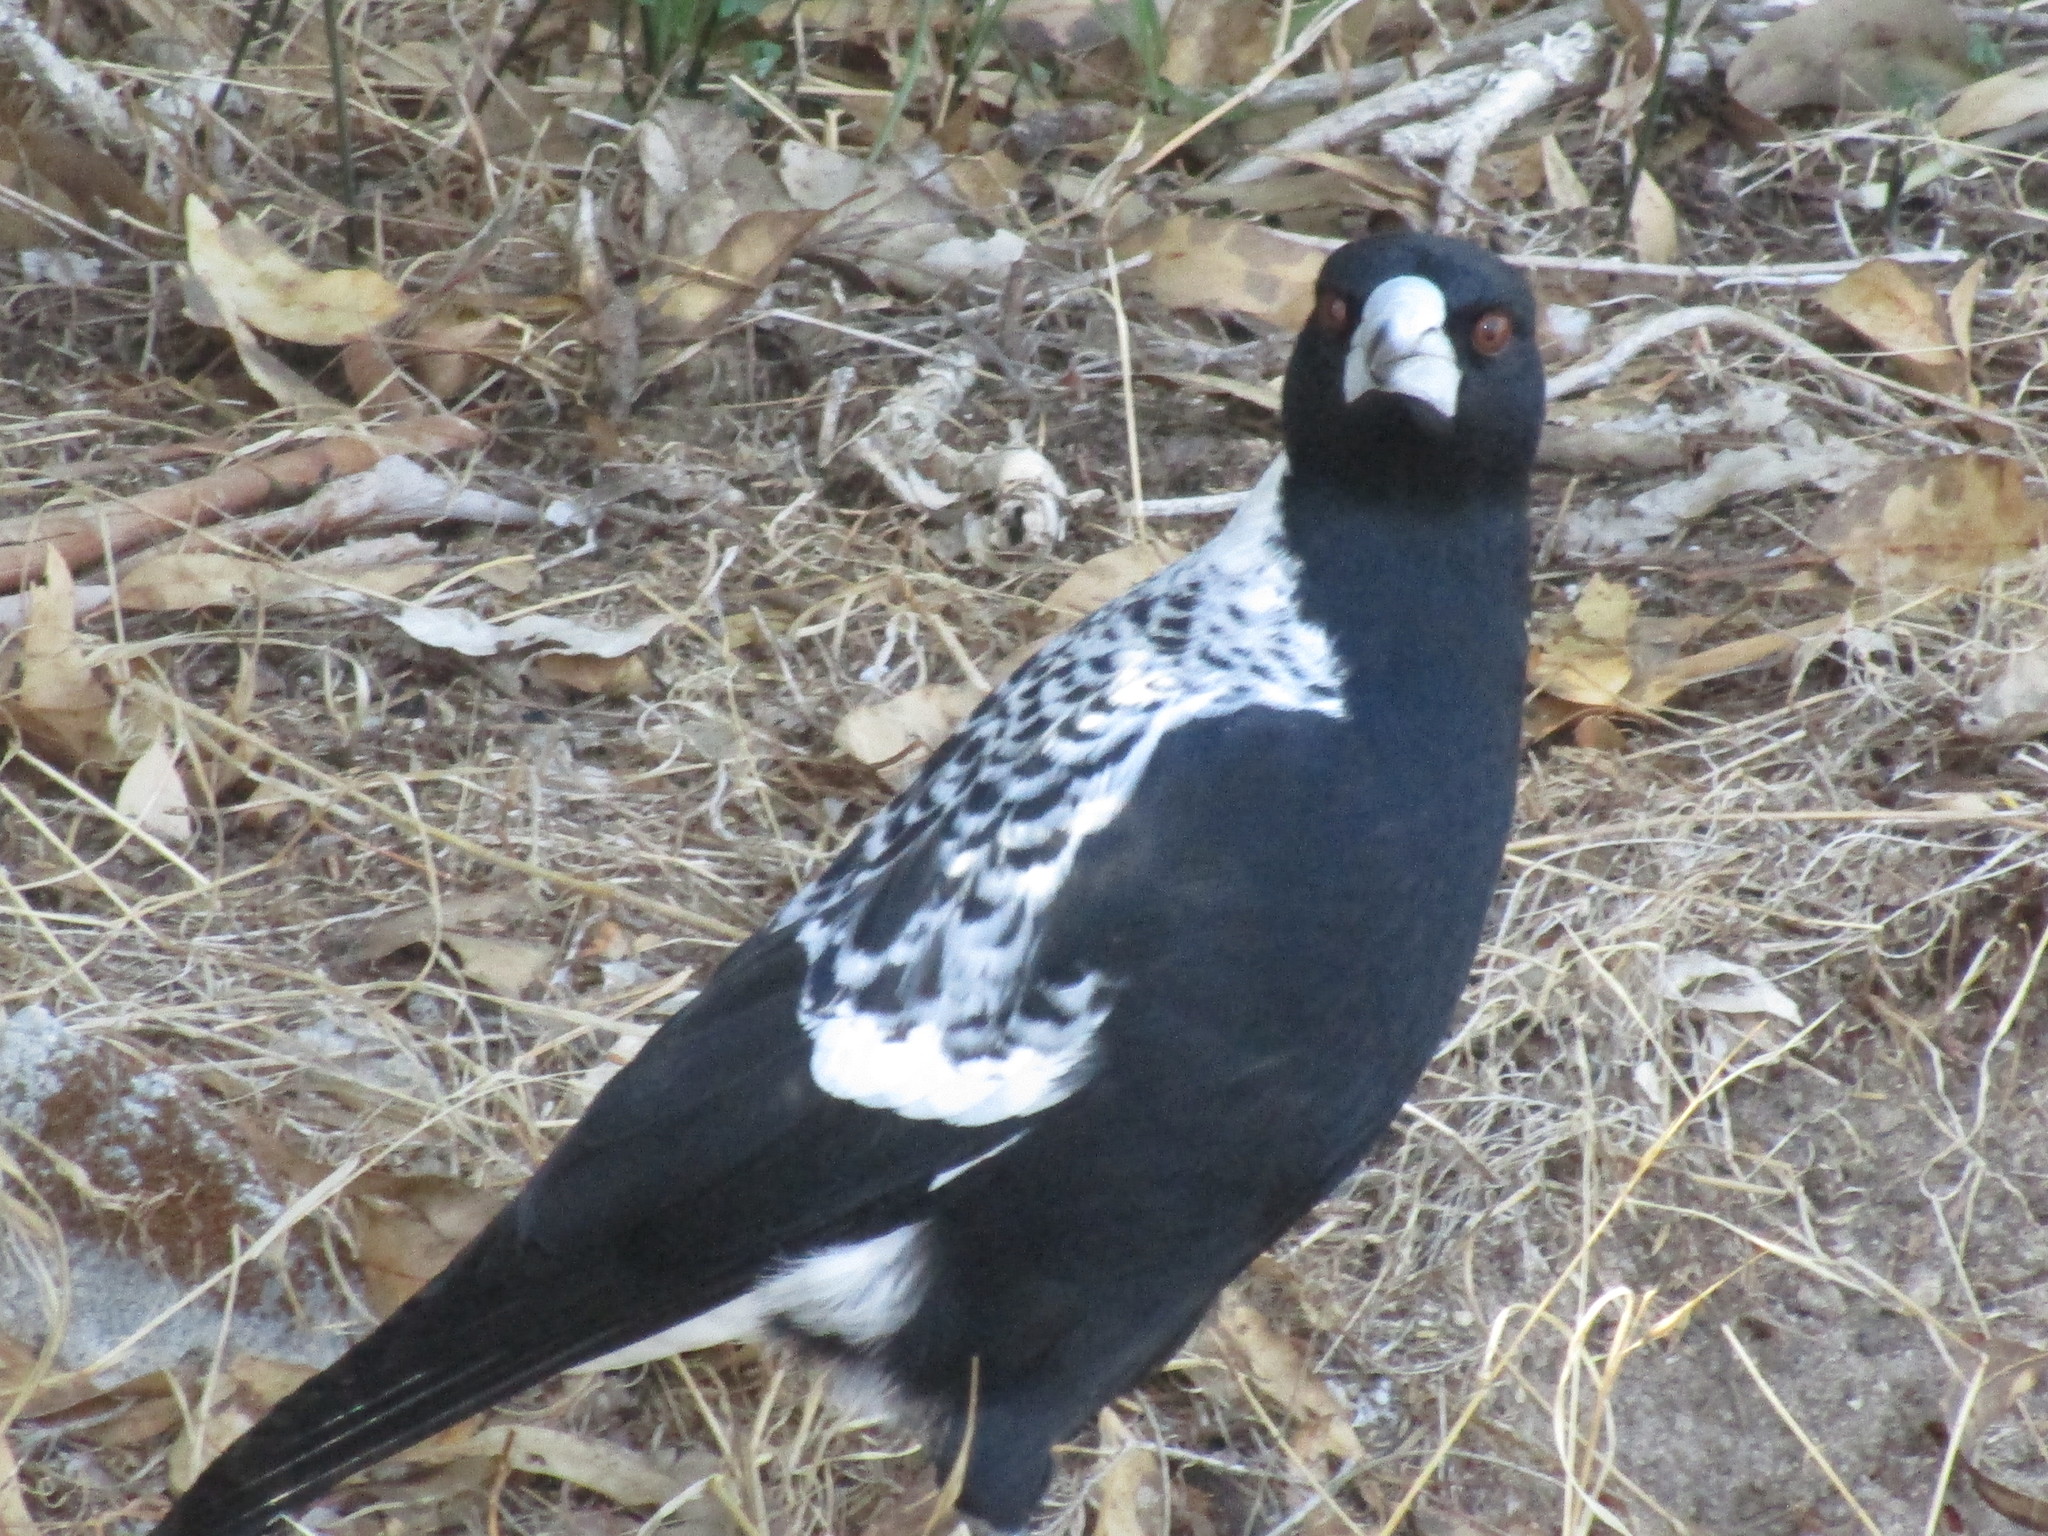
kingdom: Animalia
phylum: Chordata
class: Aves
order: Passeriformes
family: Cracticidae
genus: Gymnorhina
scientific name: Gymnorhina tibicen
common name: Australian magpie
